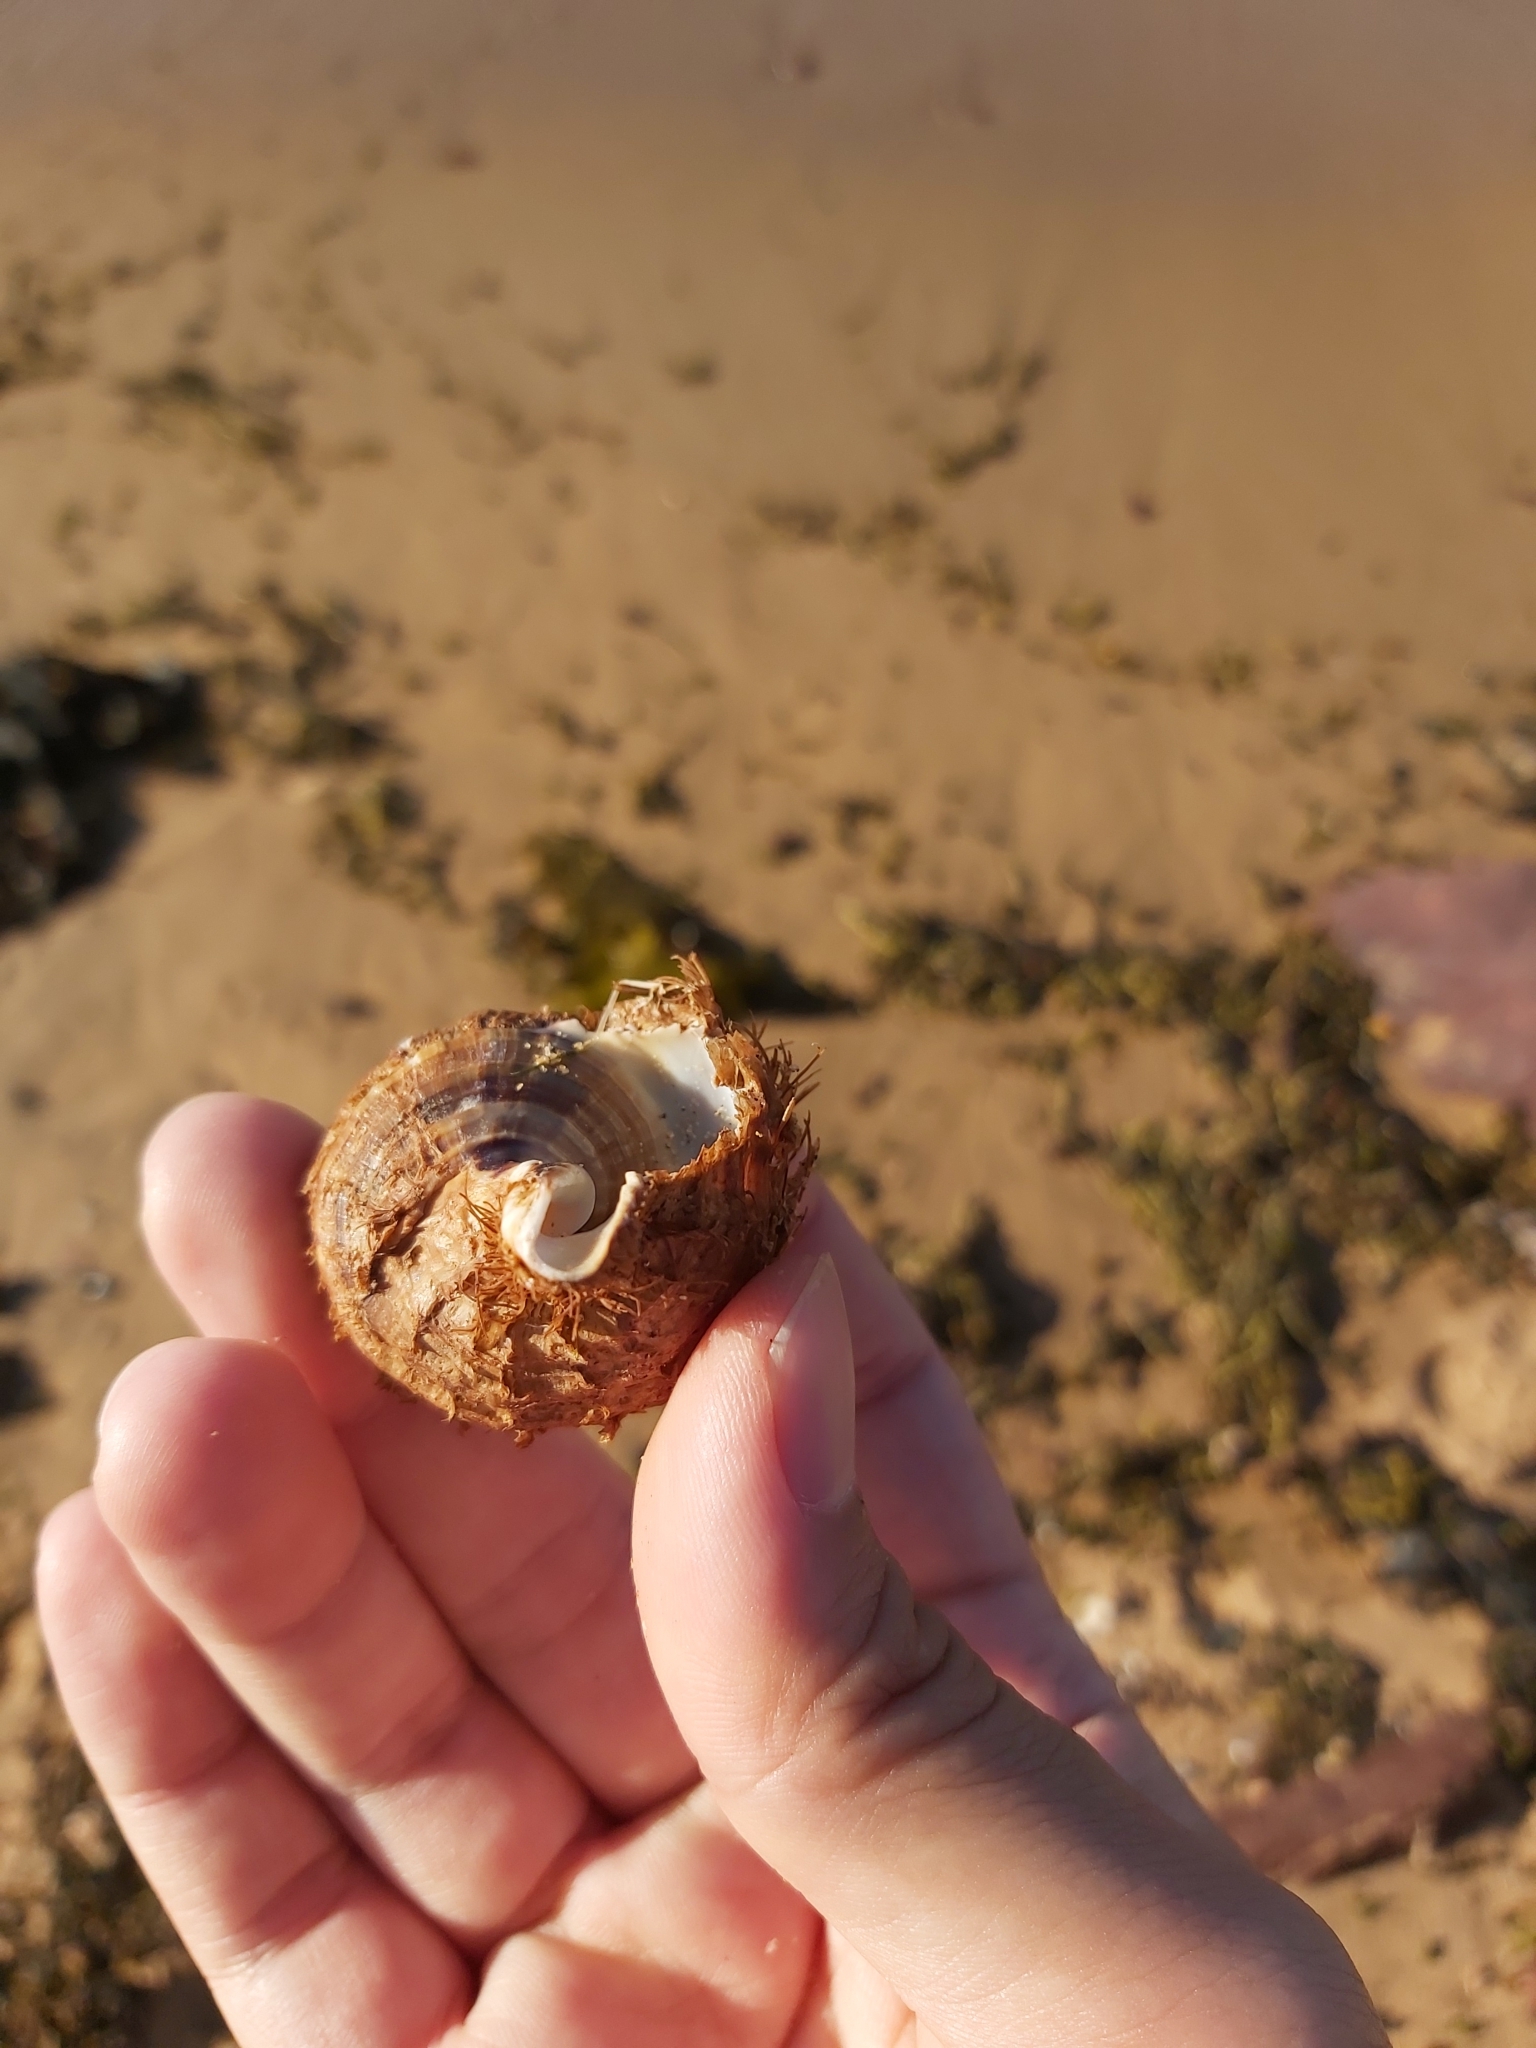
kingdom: Animalia
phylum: Mollusca
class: Gastropoda
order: Littorinimorpha
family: Cymatiidae
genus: Monoplex
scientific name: Monoplex parthenopeus
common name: Giant triton
